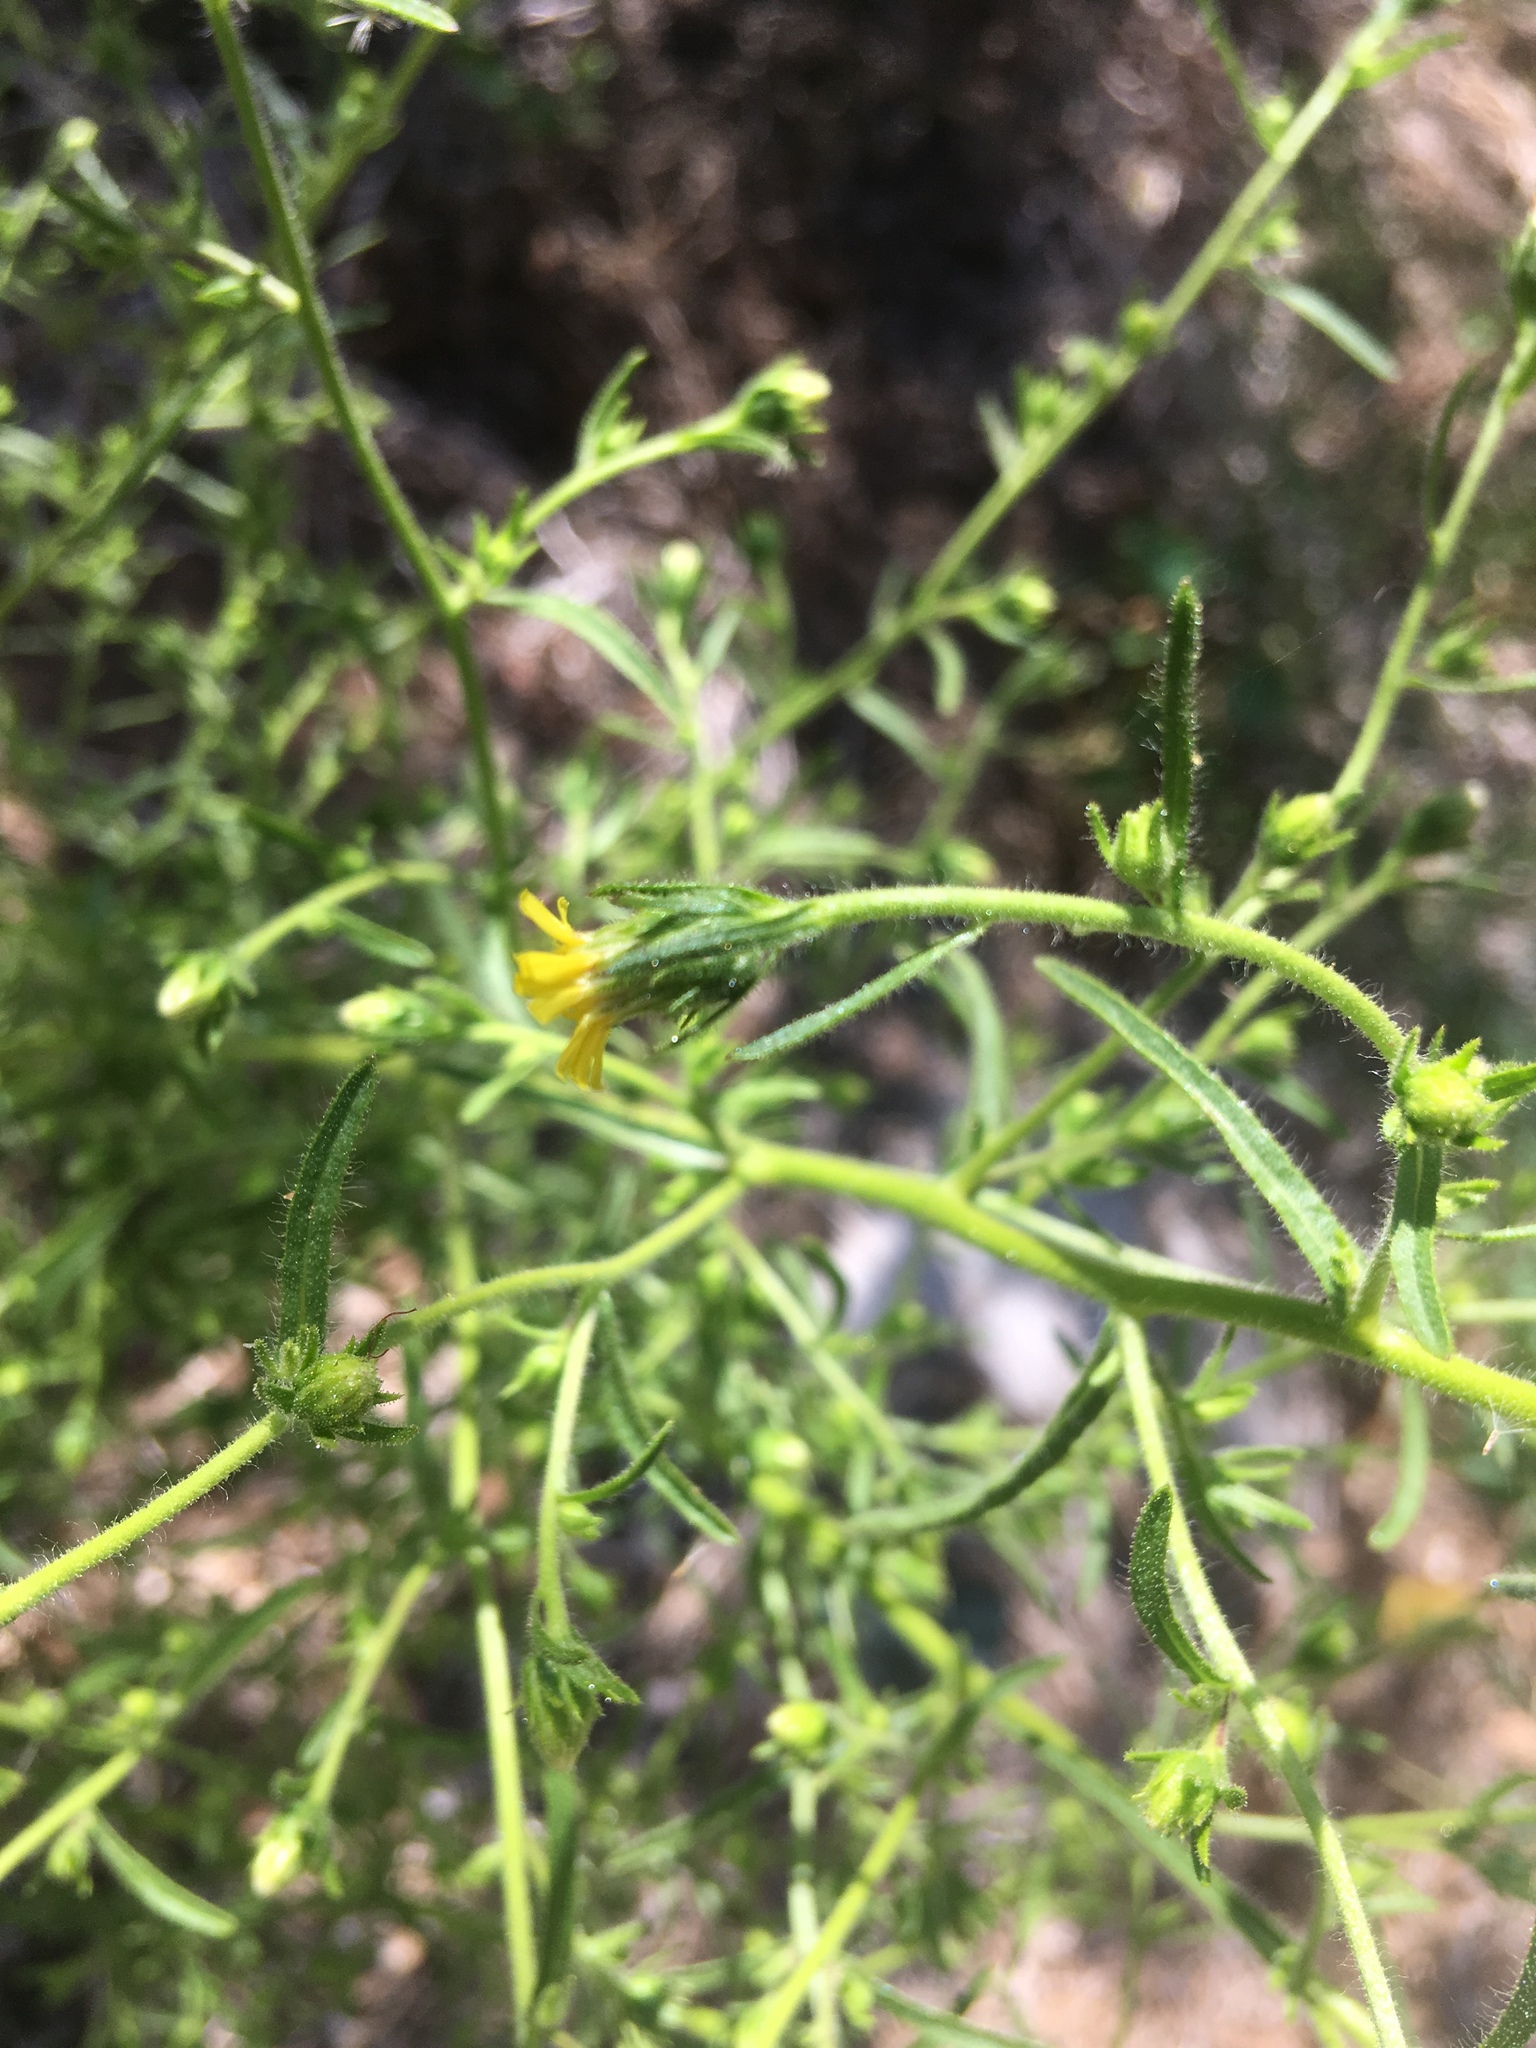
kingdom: Plantae
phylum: Tracheophyta
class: Magnoliopsida
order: Asterales
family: Asteraceae
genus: Dittrichia
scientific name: Dittrichia graveolens
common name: Stinking fleabane
